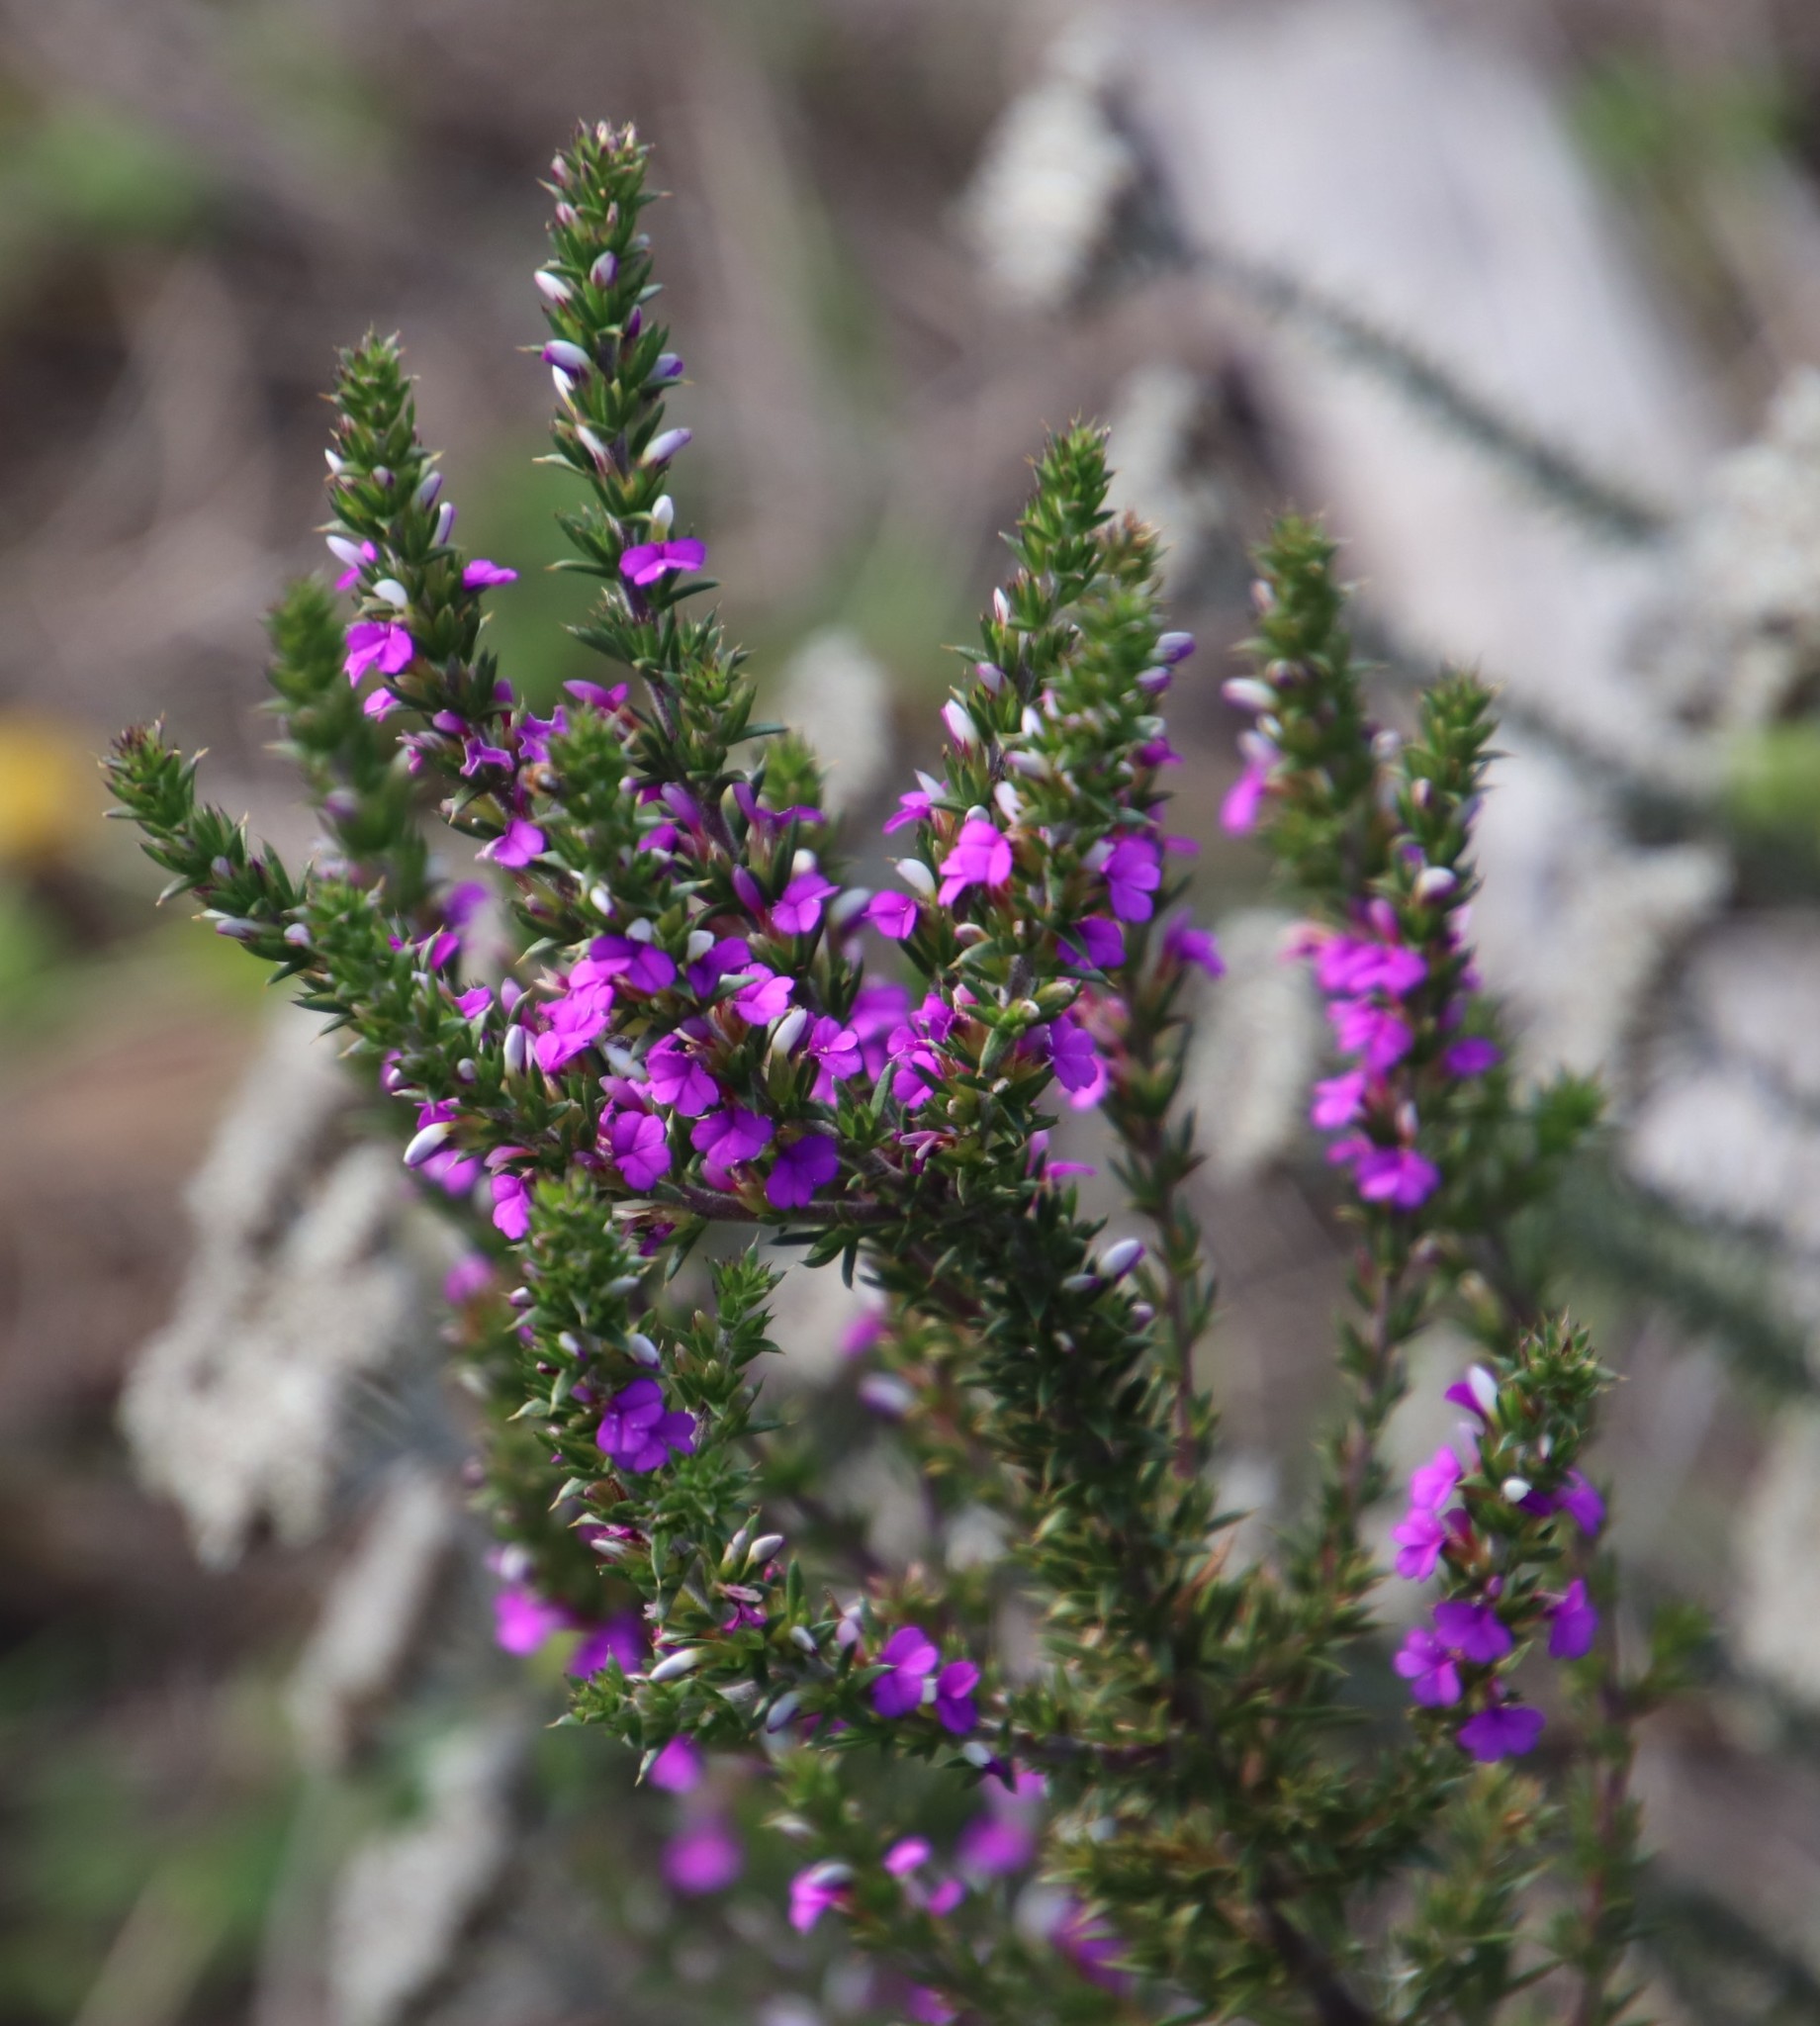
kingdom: Plantae
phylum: Tracheophyta
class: Magnoliopsida
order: Fabales
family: Polygalaceae
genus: Muraltia
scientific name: Muraltia heisteria
